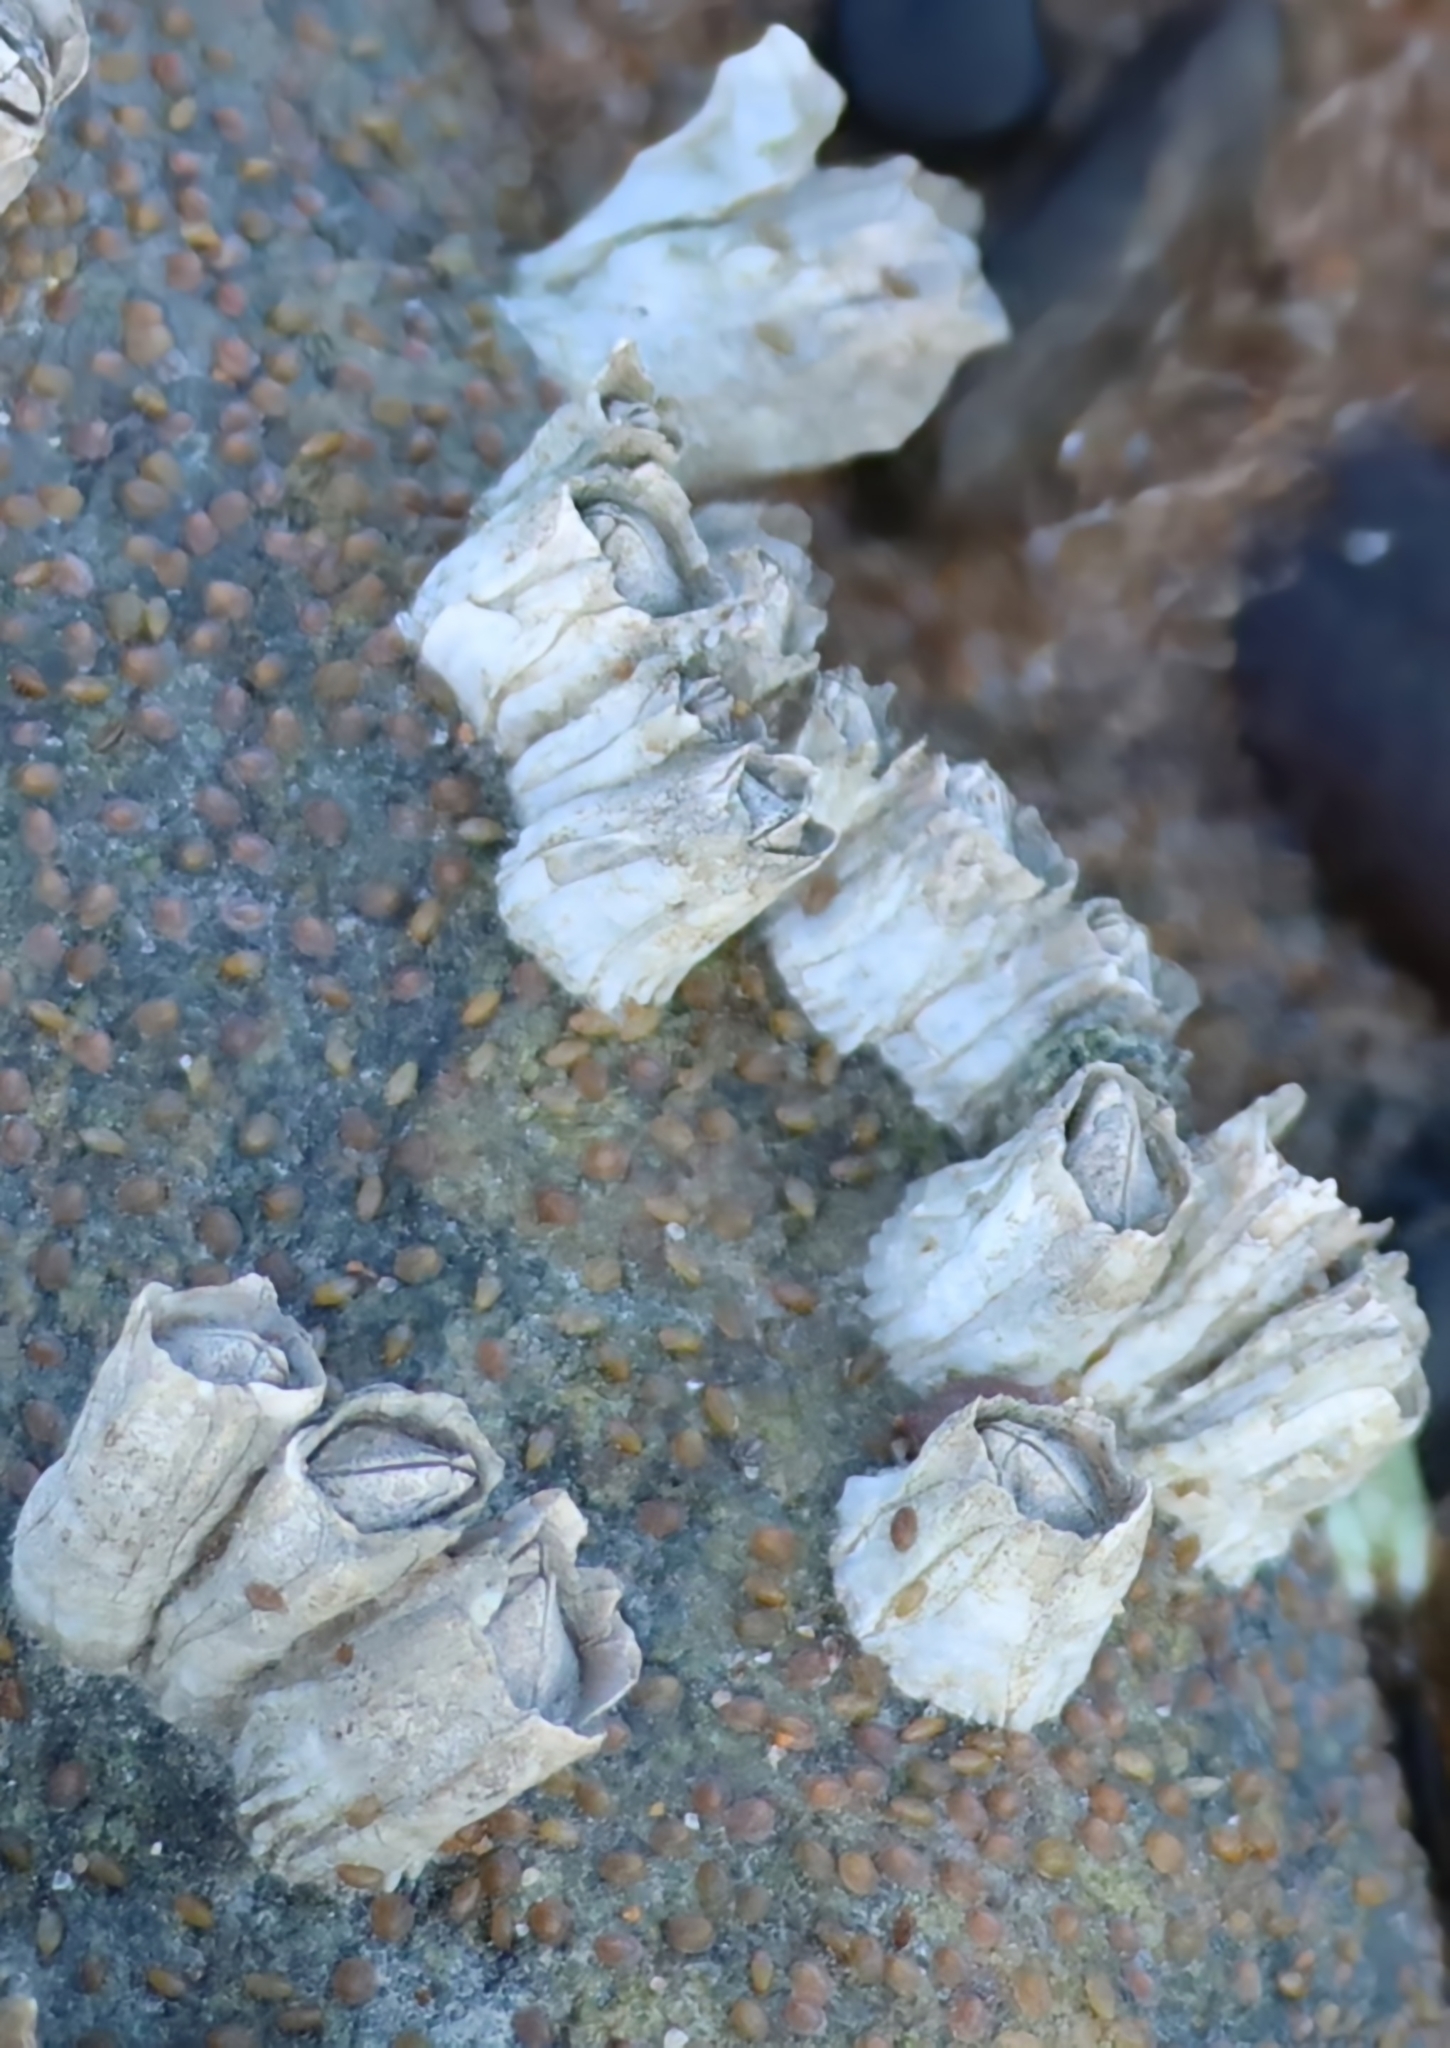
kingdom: Animalia
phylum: Arthropoda
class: Maxillopoda
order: Sessilia
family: Balanidae
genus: Balanus
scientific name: Balanus crenatus
